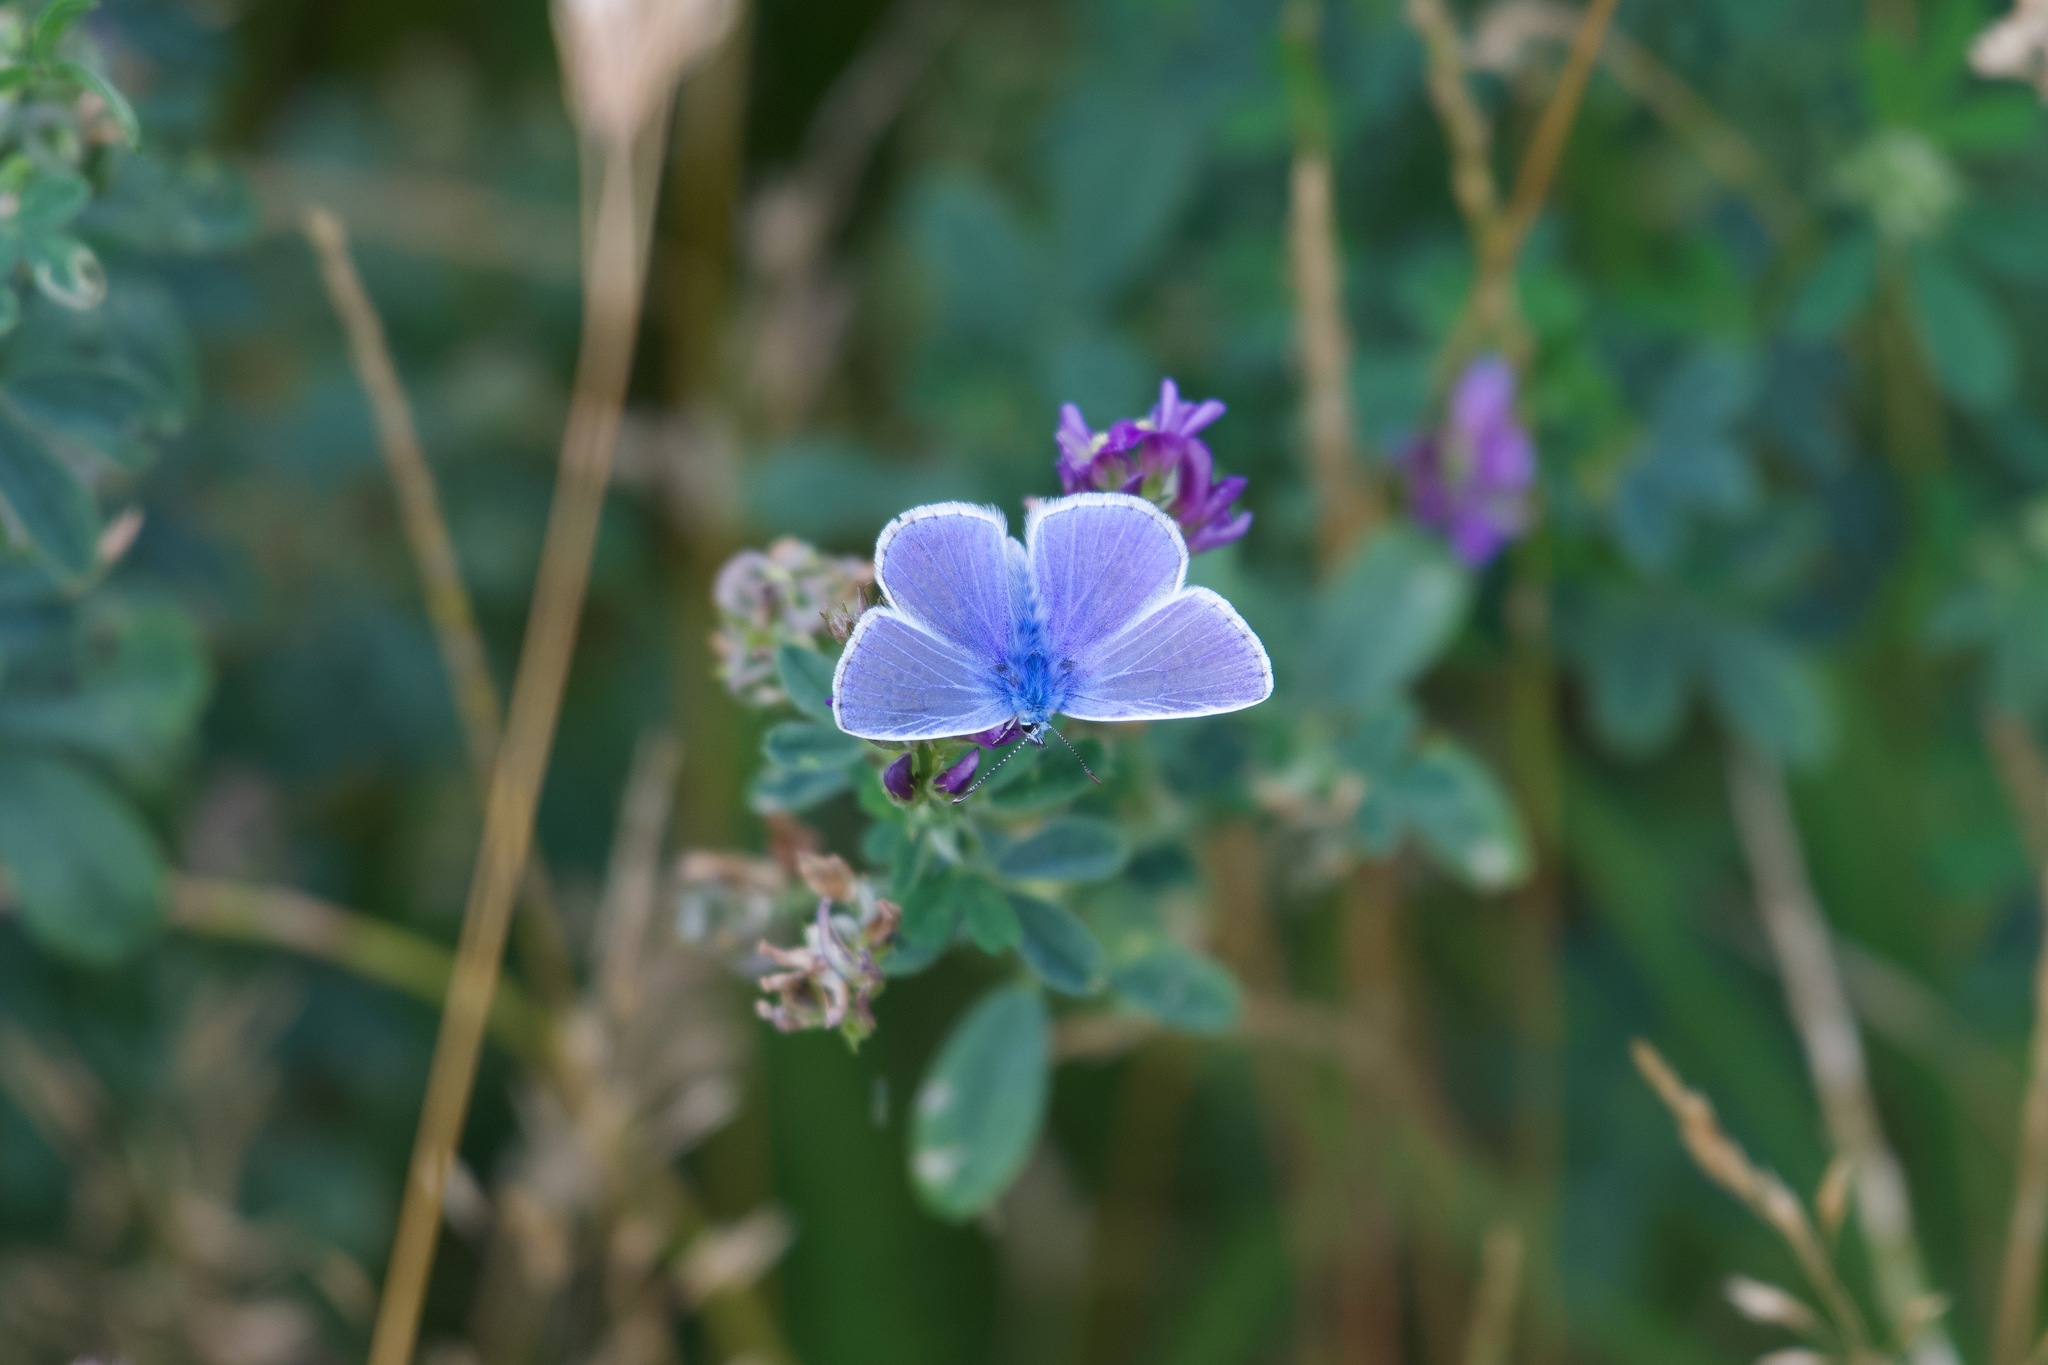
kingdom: Animalia
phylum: Arthropoda
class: Insecta
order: Lepidoptera
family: Lycaenidae
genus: Polyommatus
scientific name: Polyommatus icarus
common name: Common blue
